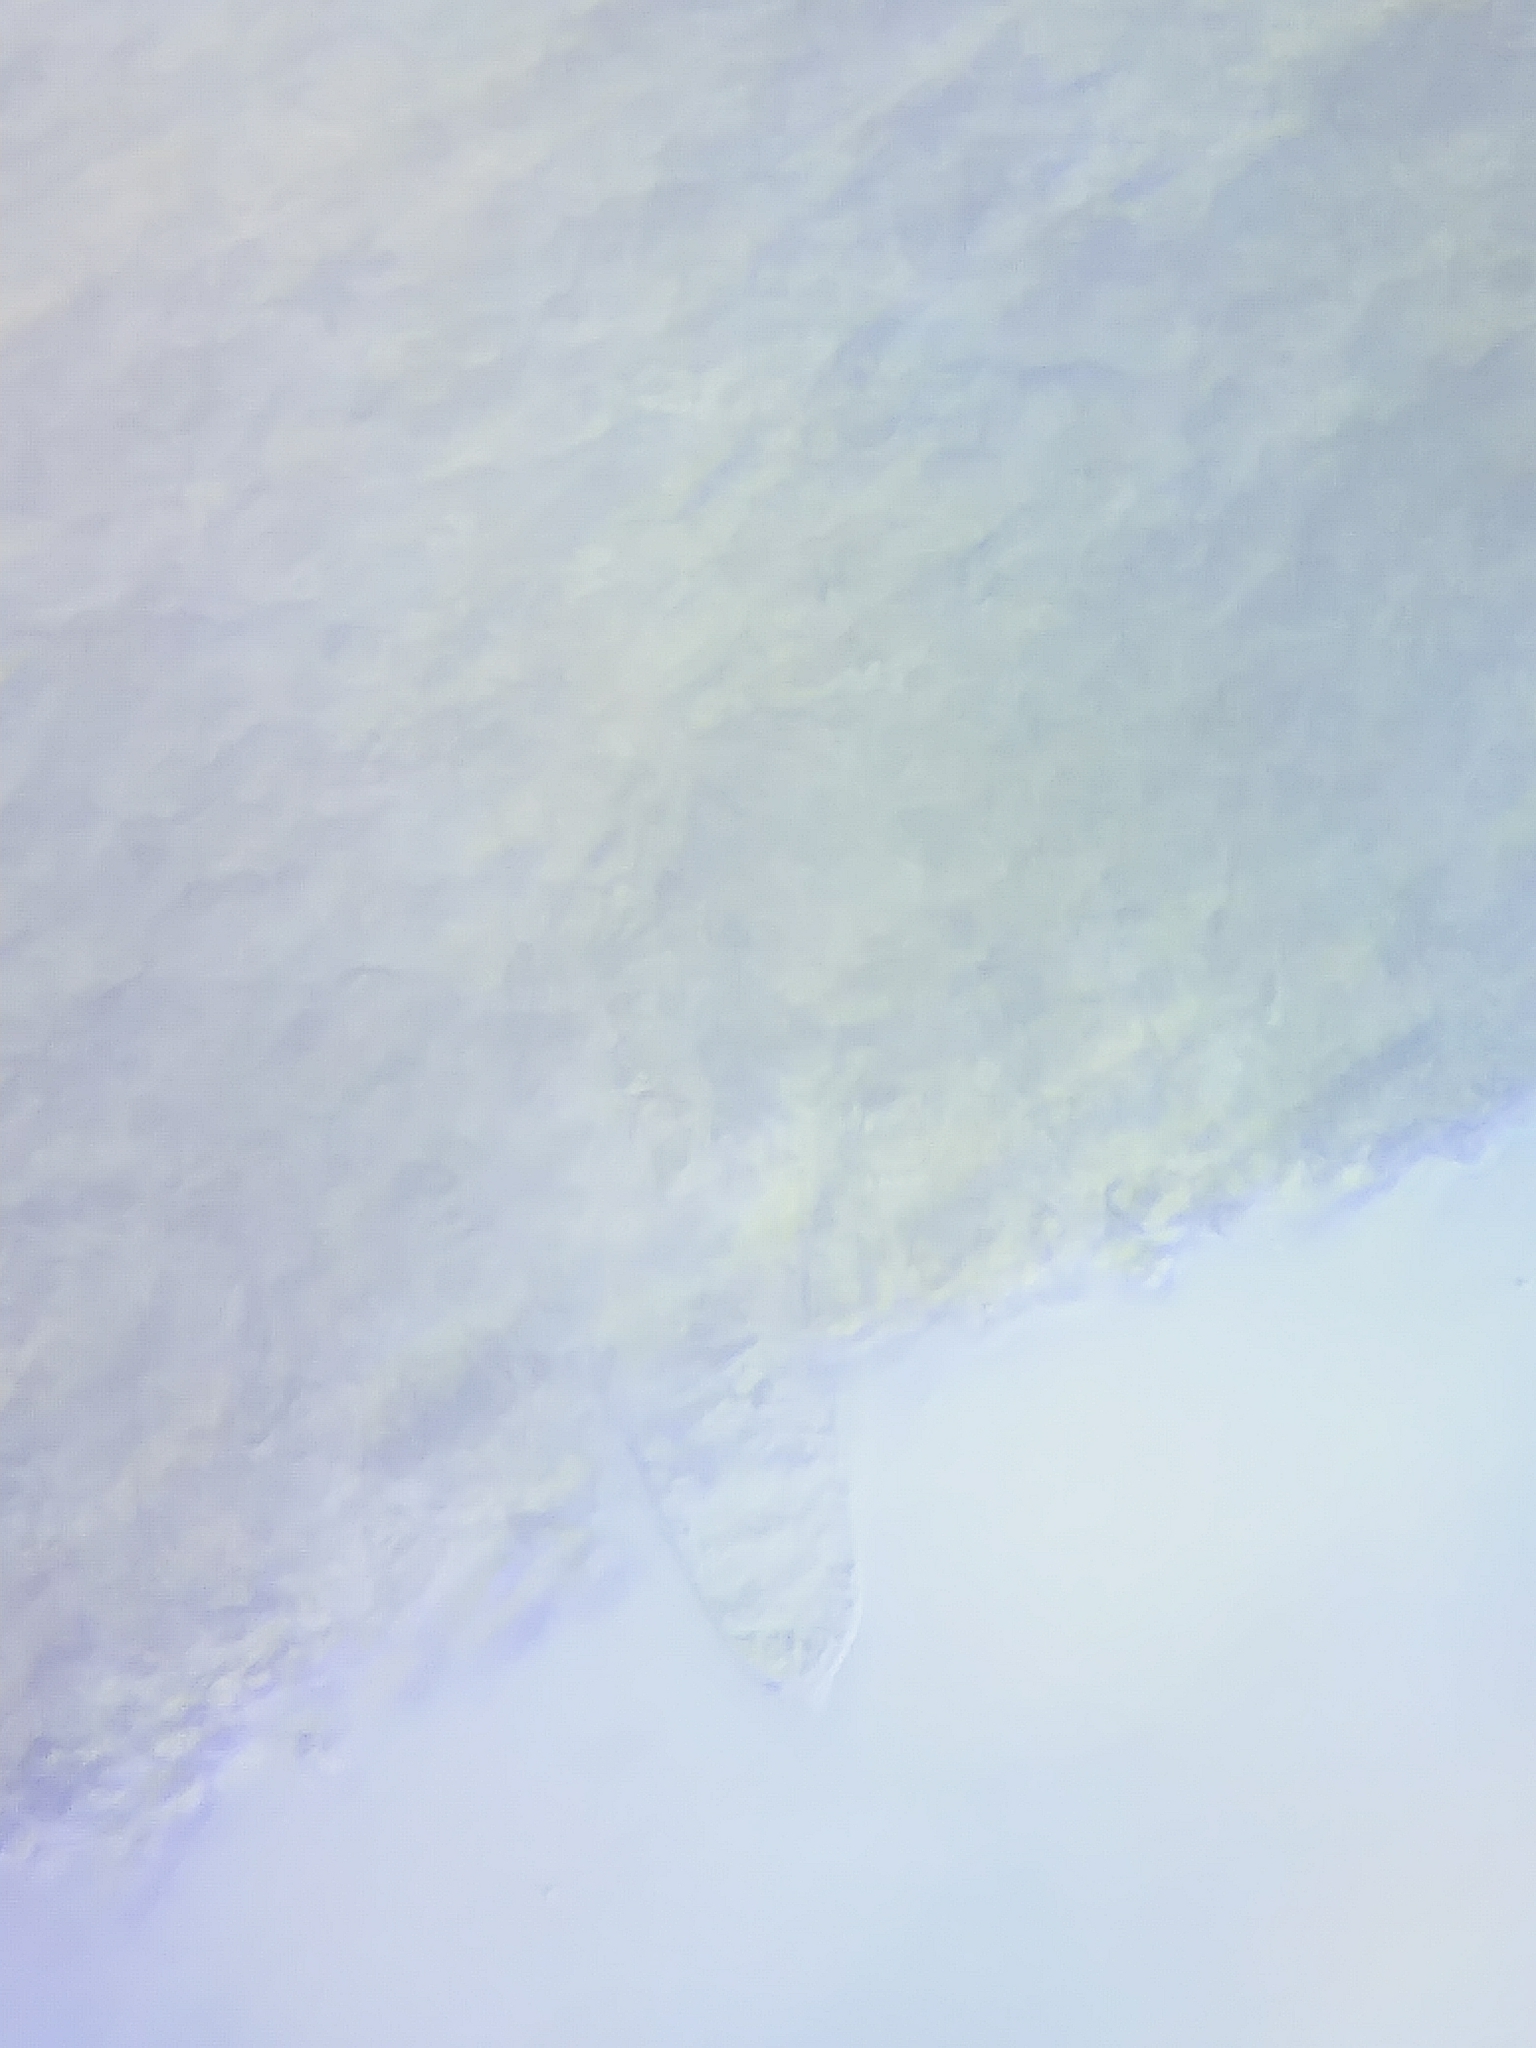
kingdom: Fungi
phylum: Basidiomycota
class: Agaricomycetes
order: Agaricales
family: Mycenaceae
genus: Mycena
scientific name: Mycena denticulata
